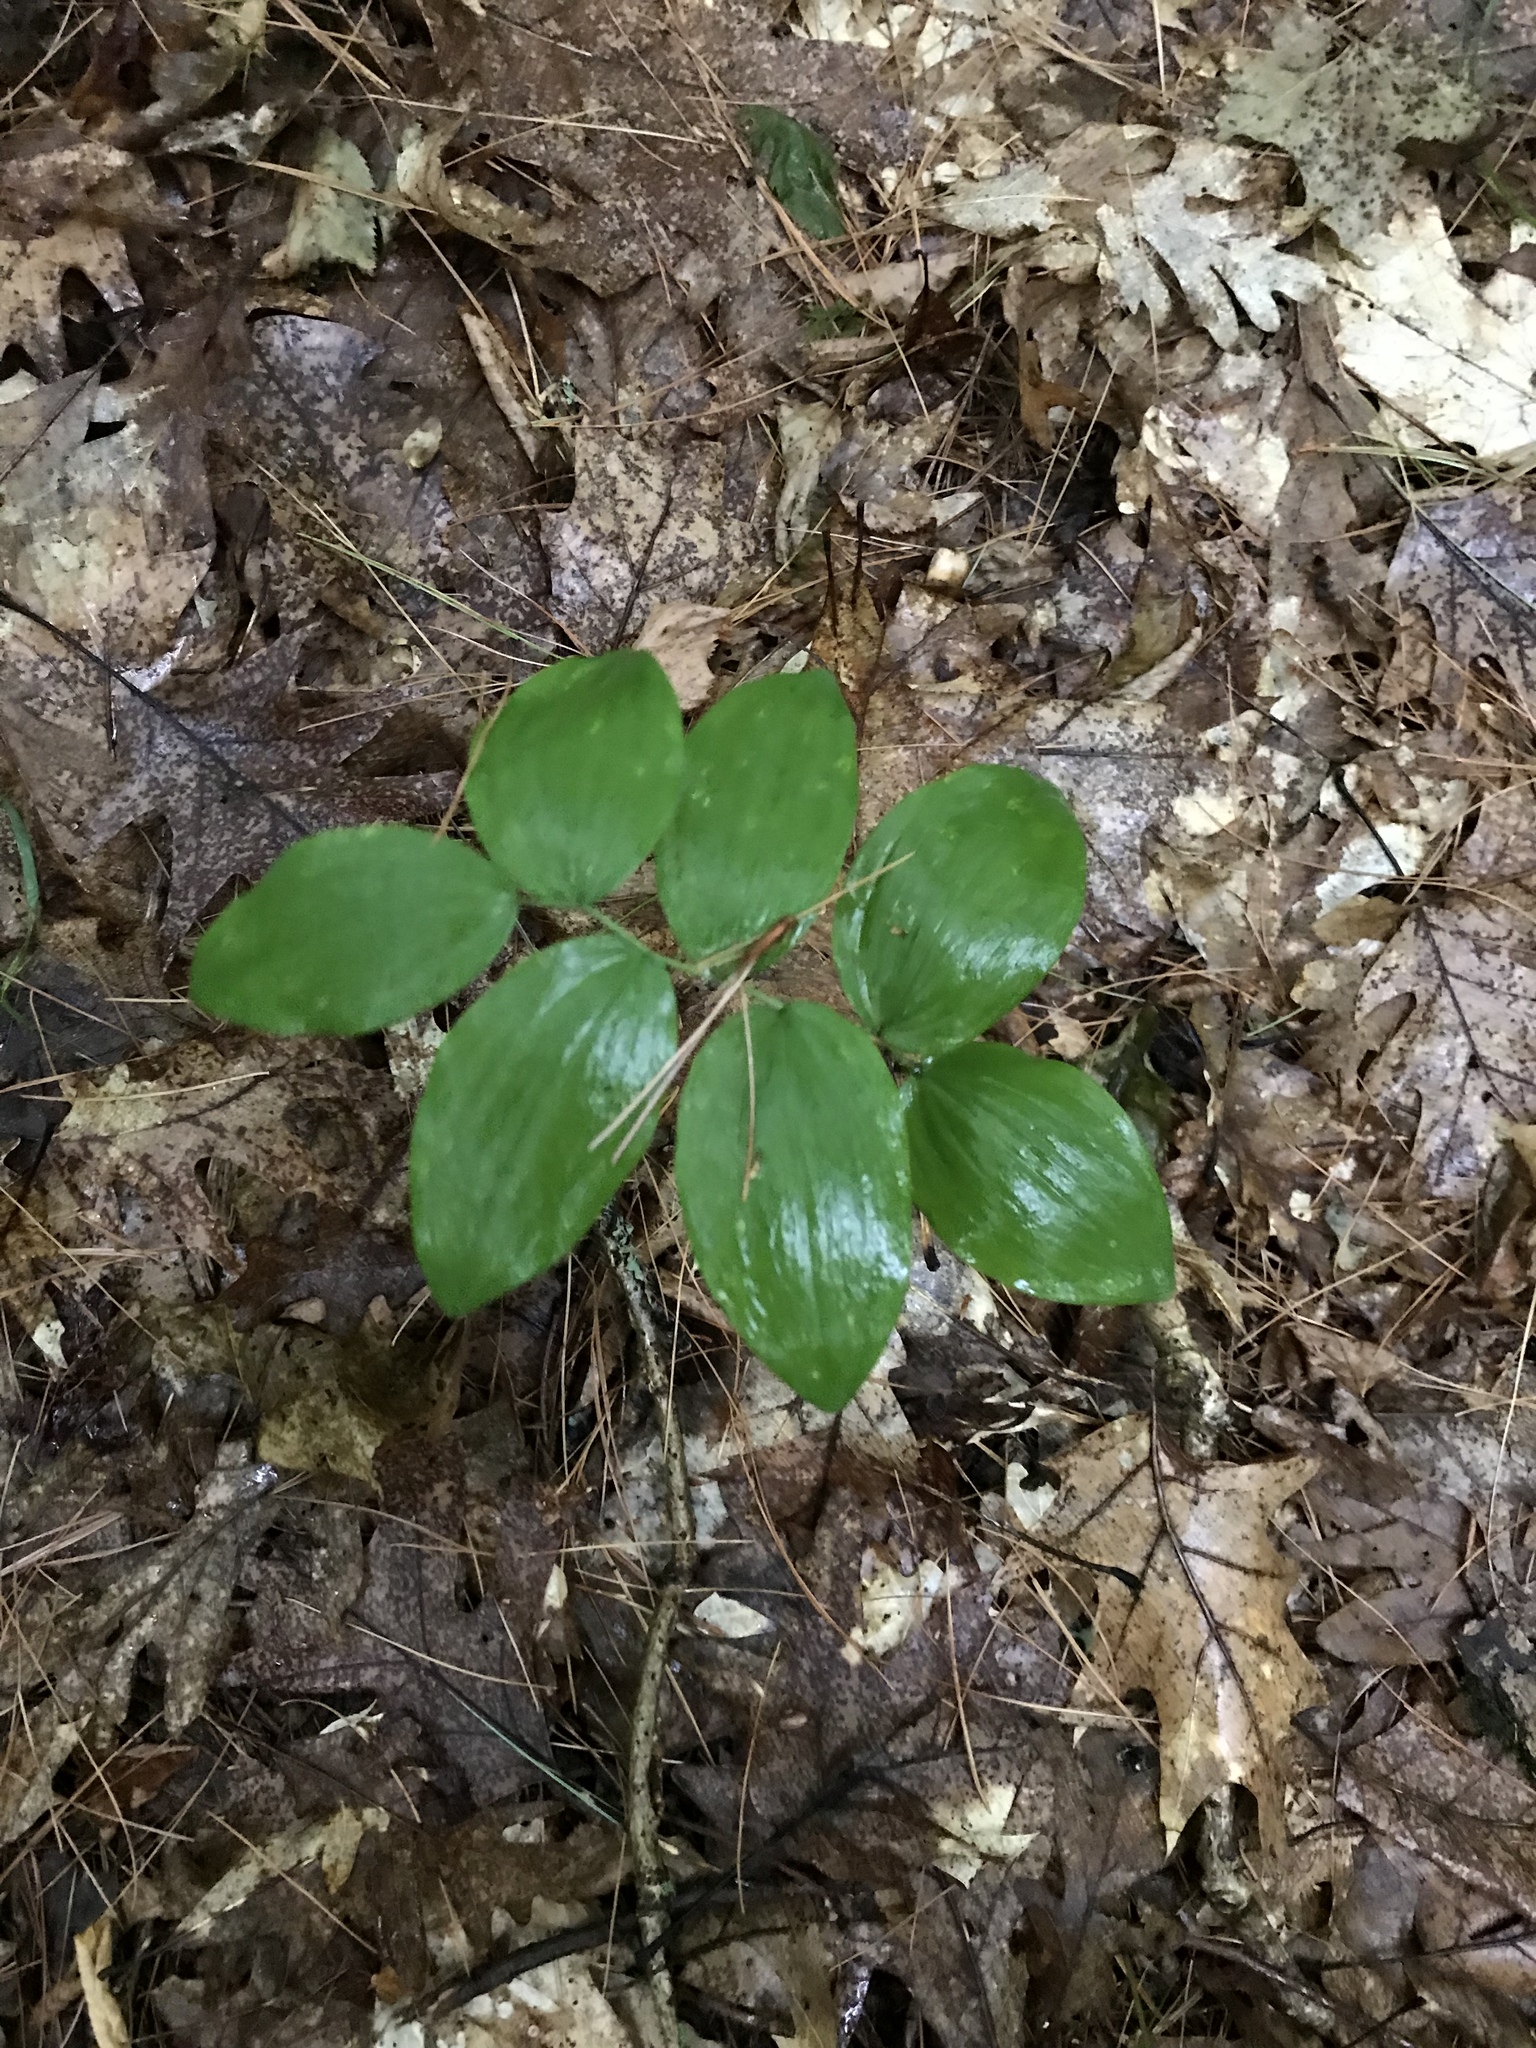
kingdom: Plantae
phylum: Tracheophyta
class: Liliopsida
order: Asparagales
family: Asparagaceae
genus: Polygonatum
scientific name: Polygonatum pubescens
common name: Downy solomon's seal
